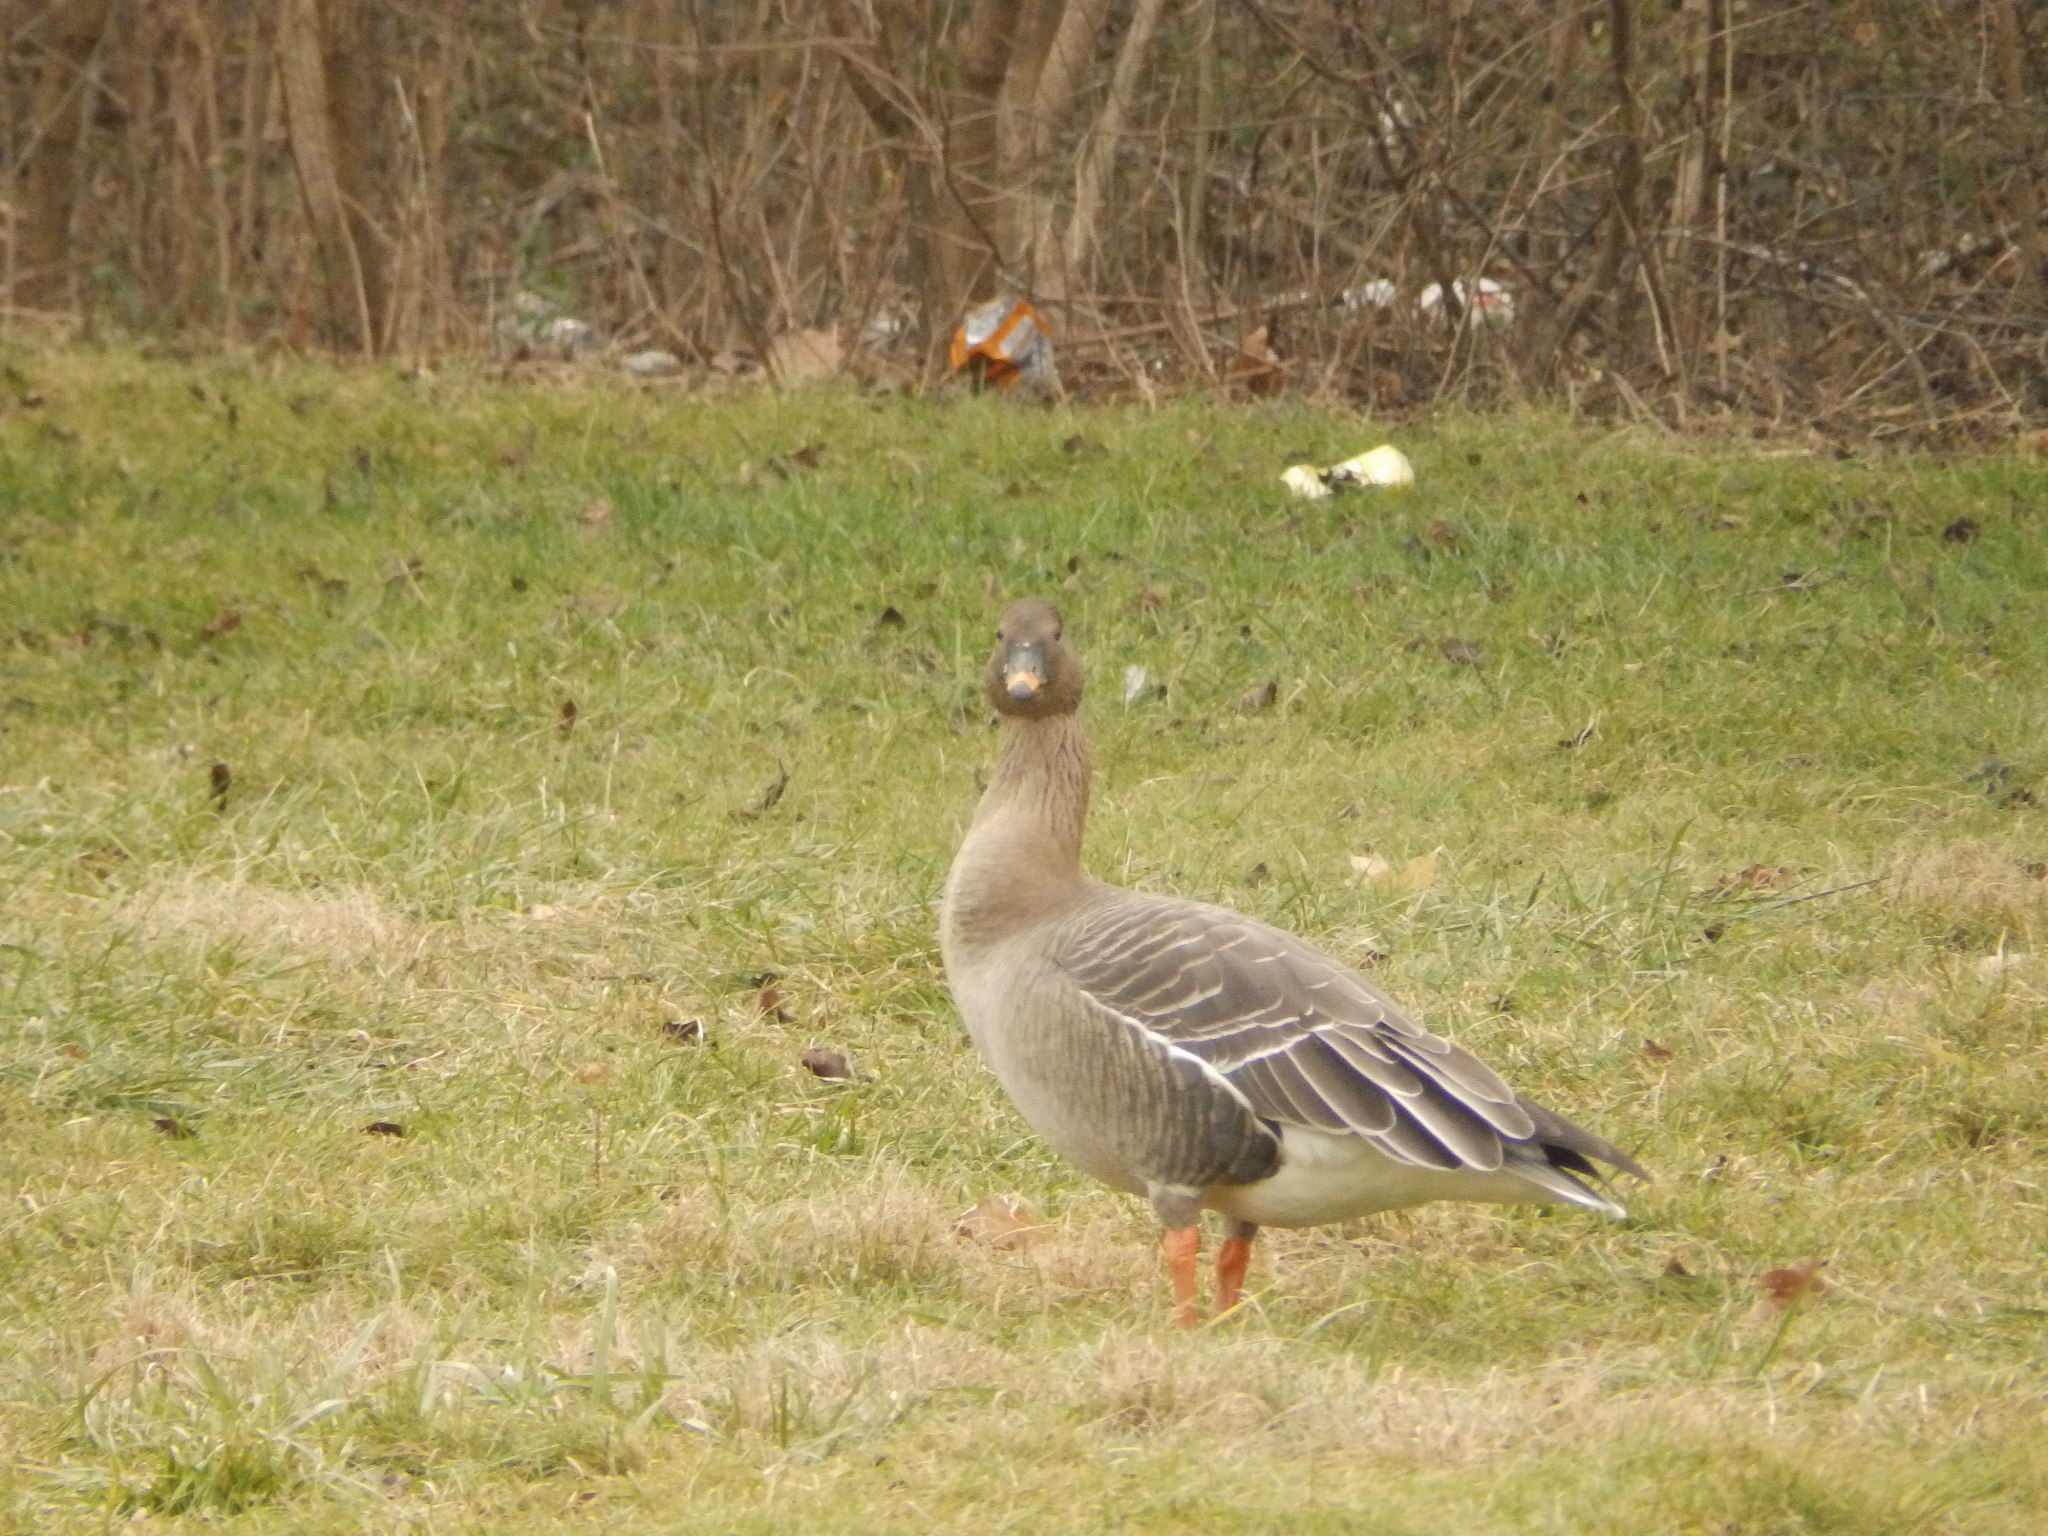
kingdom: Animalia
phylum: Chordata
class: Aves
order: Anseriformes
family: Anatidae
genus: Anser
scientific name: Anser serrirostris
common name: Tundra bean goose
